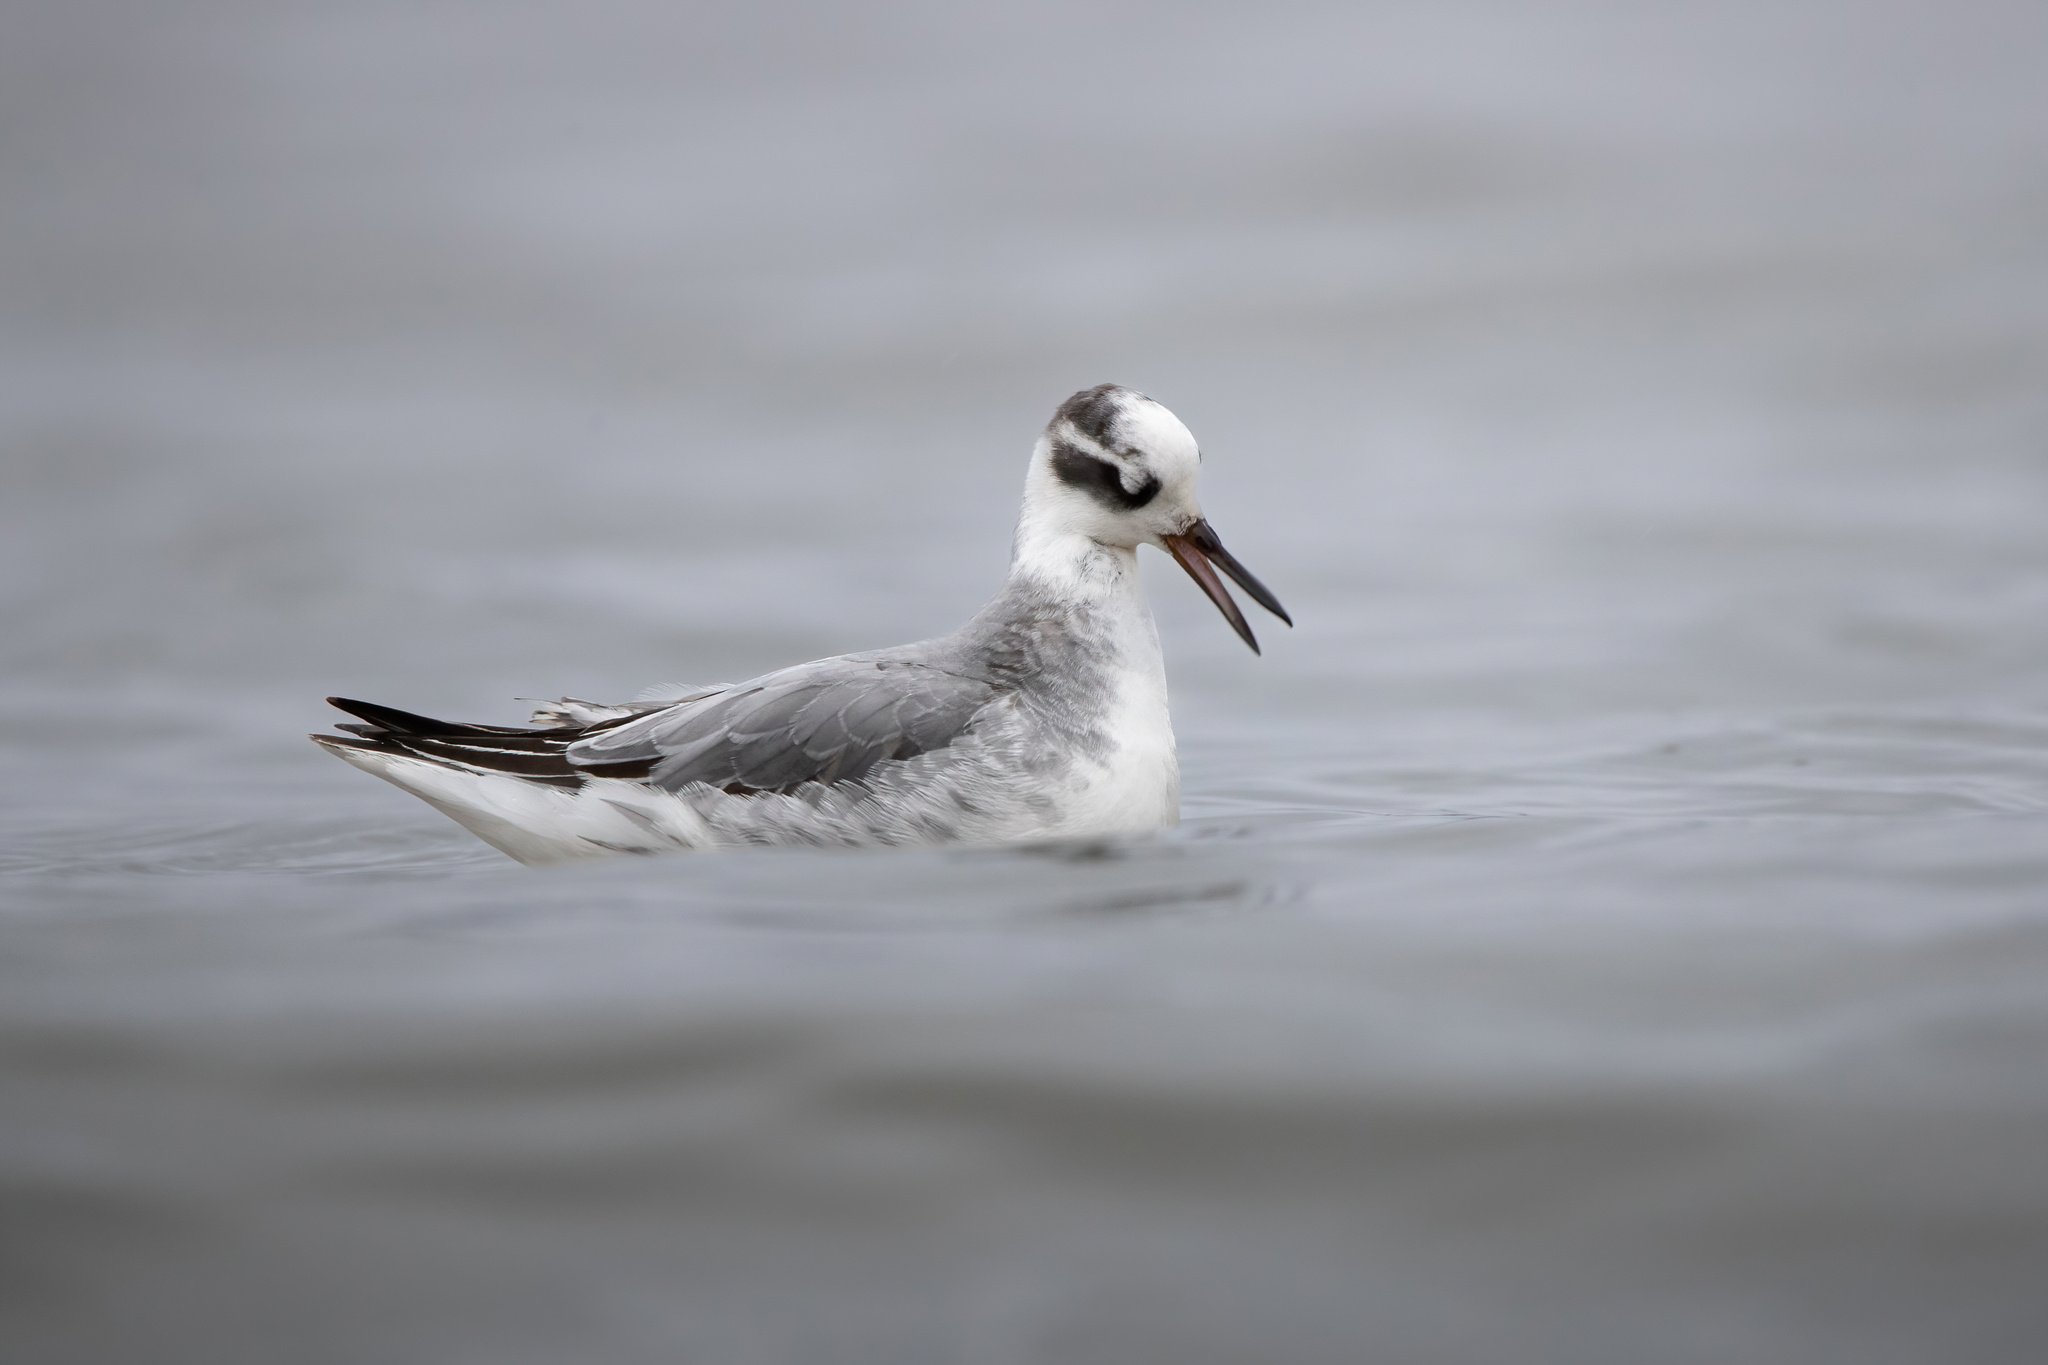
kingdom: Animalia
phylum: Chordata
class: Aves
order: Charadriiformes
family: Scolopacidae
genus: Phalaropus
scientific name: Phalaropus fulicarius
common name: Red phalarope
